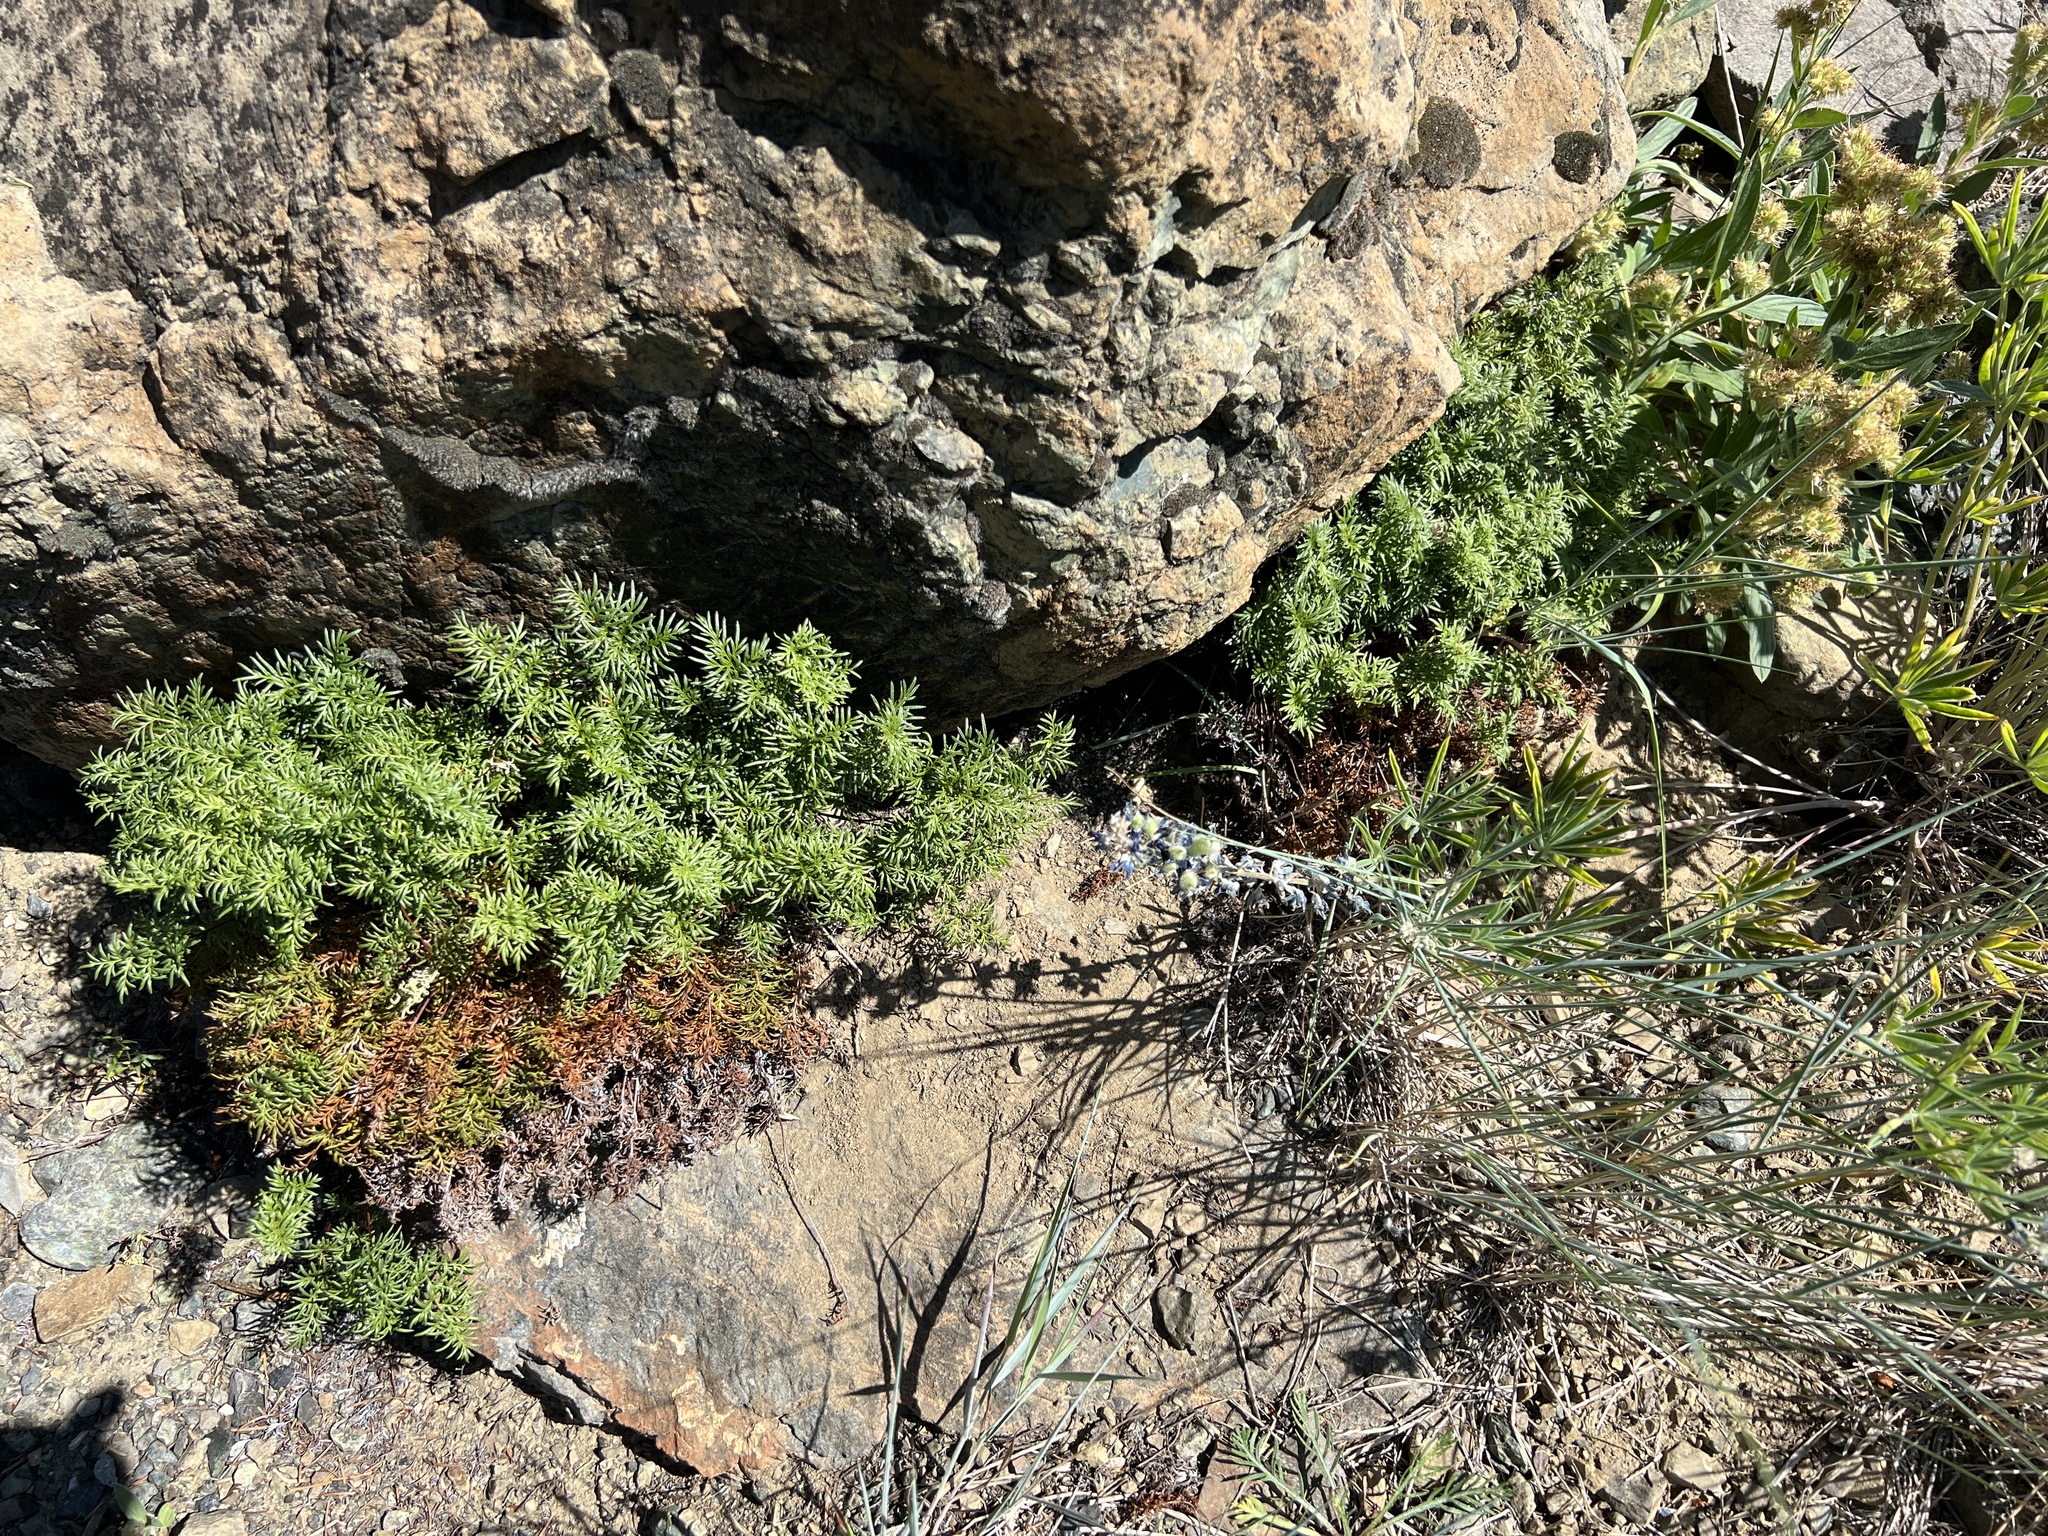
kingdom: Plantae
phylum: Tracheophyta
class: Polypodiopsida
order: Polypodiales
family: Pteridaceae
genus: Aspidotis
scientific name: Aspidotis densa
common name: Indian's dream
